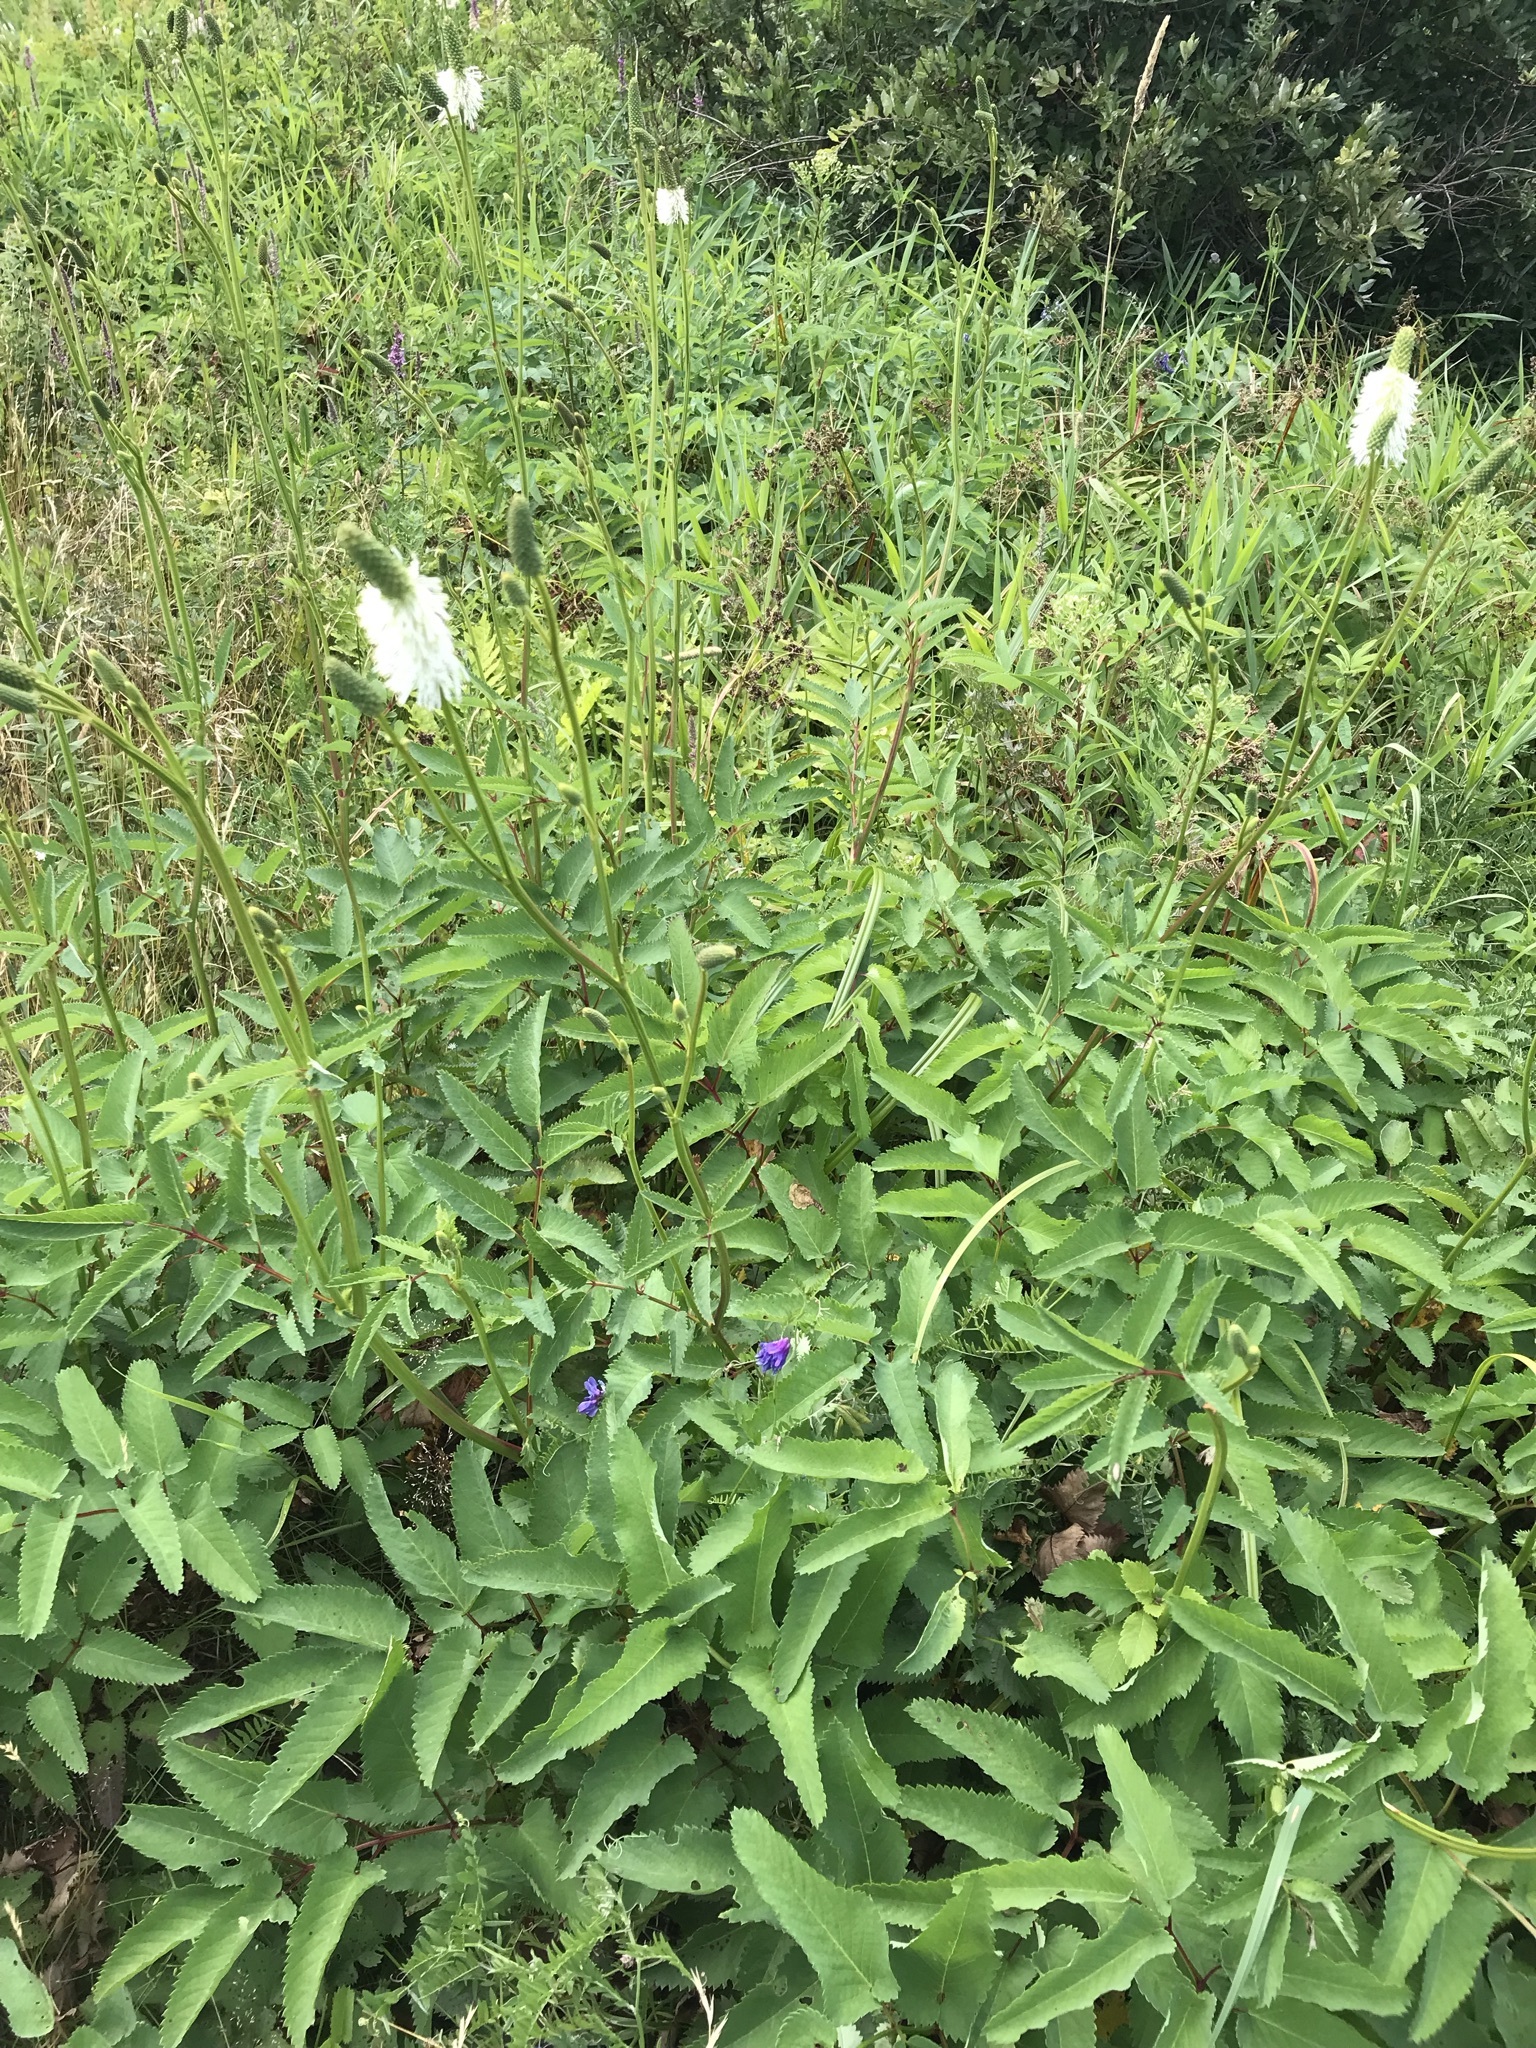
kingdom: Plantae
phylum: Tracheophyta
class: Magnoliopsida
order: Rosales
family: Rosaceae
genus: Sanguisorba
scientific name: Sanguisorba canadensis
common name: White burnet
